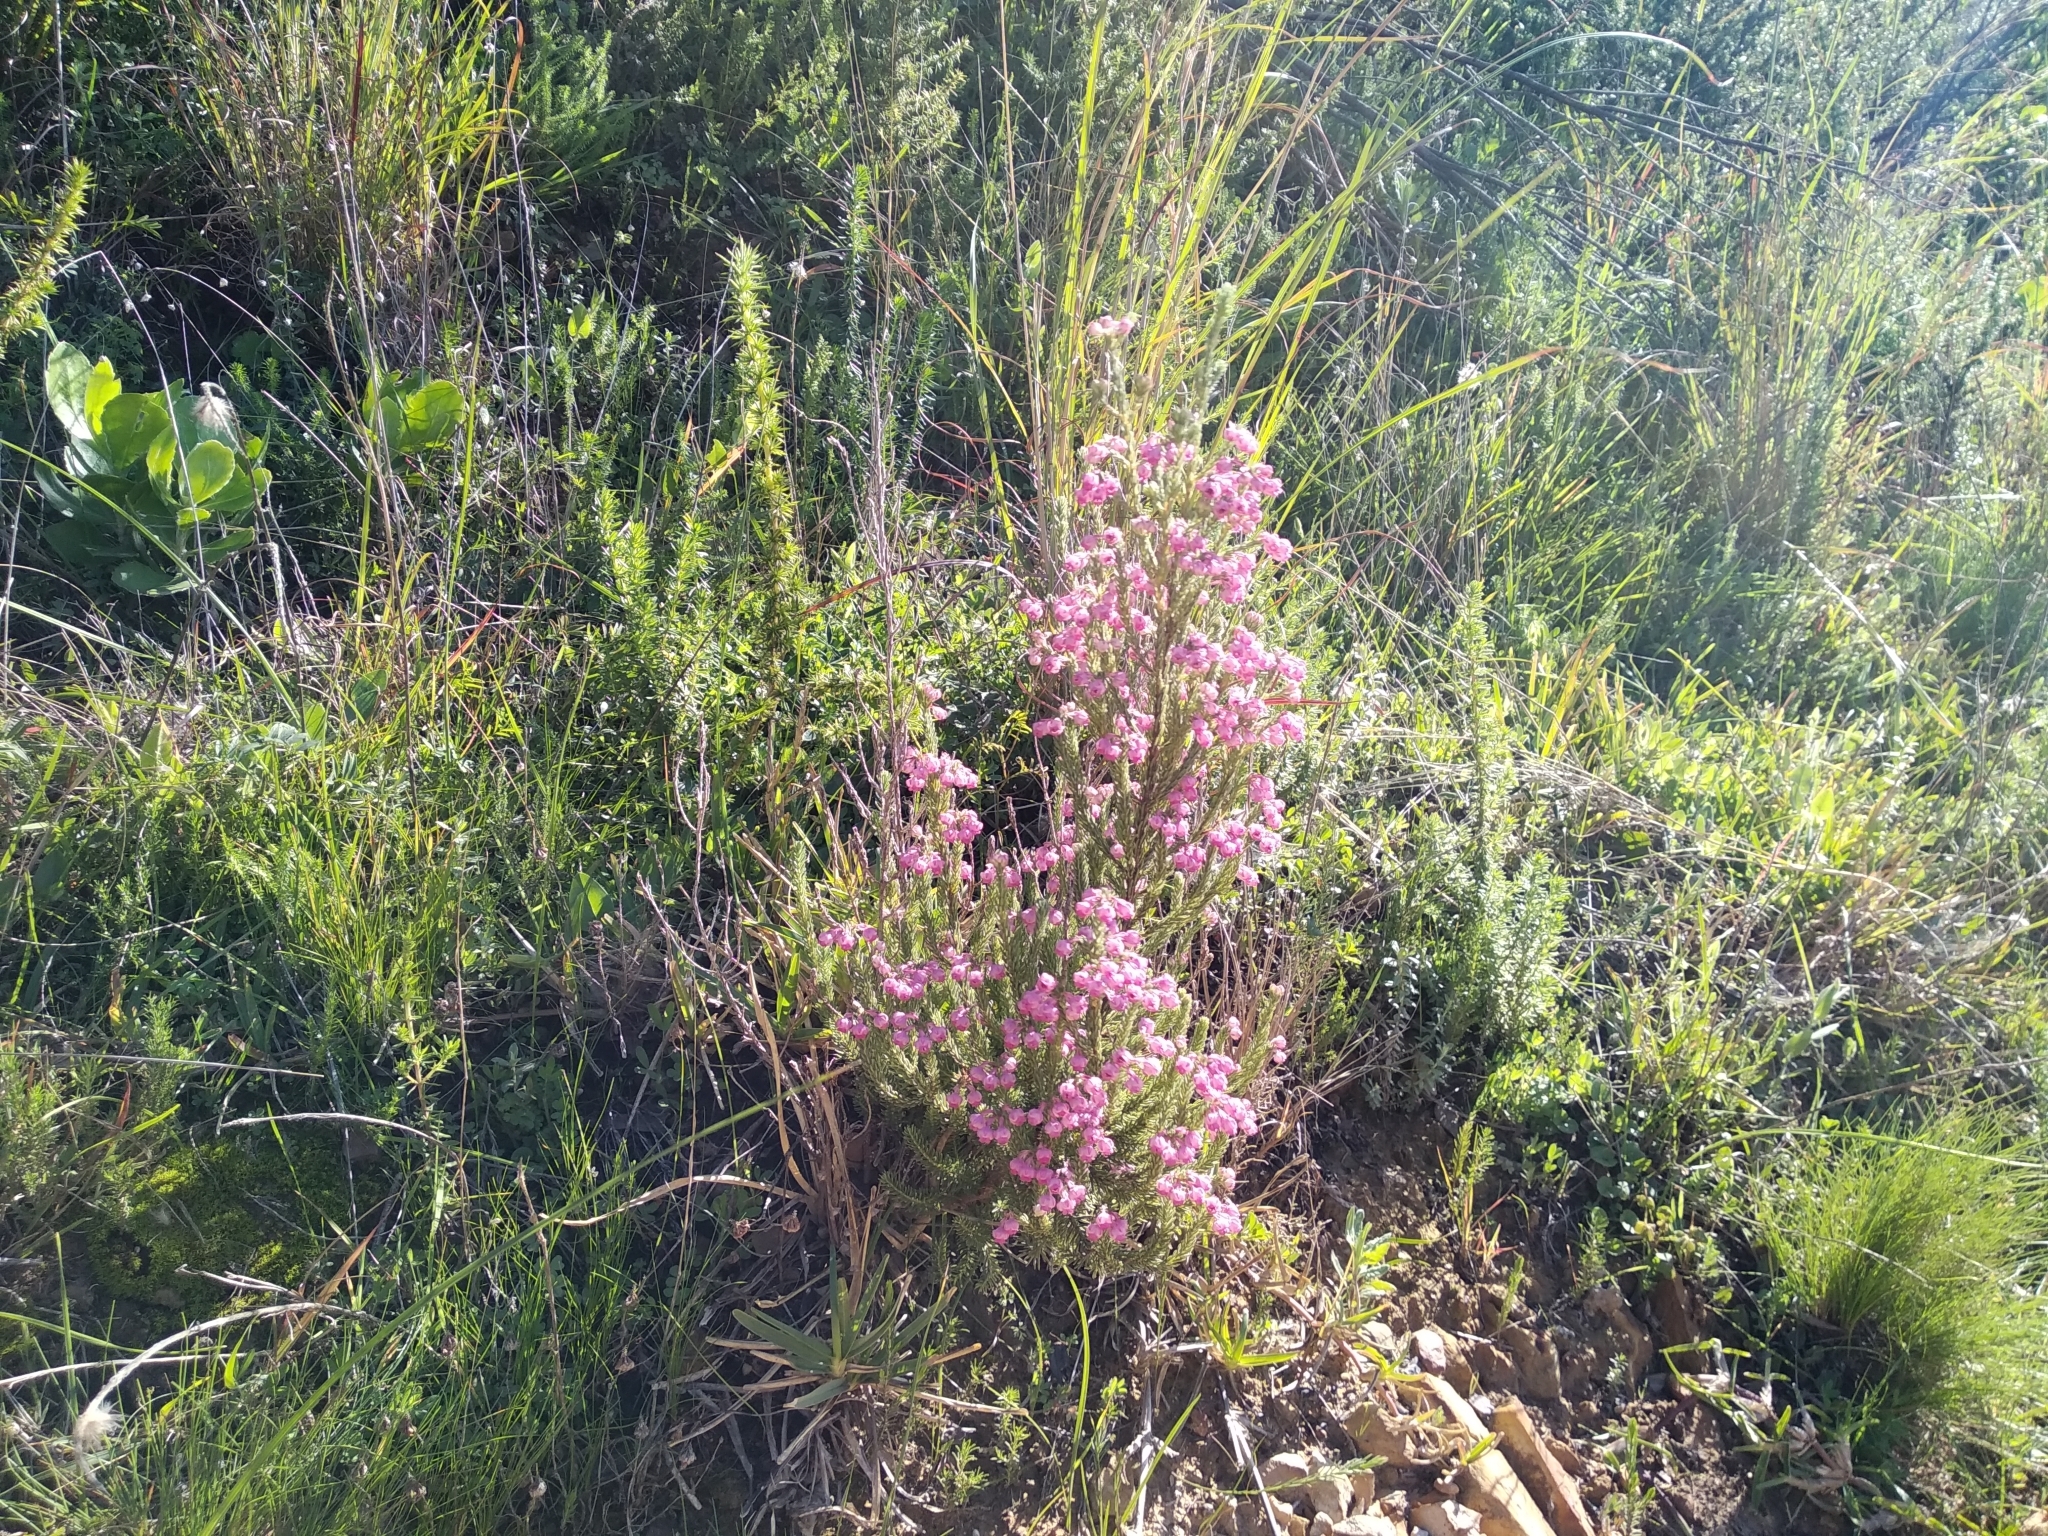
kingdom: Plantae
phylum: Tracheophyta
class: Magnoliopsida
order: Ericales
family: Ericaceae
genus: Erica
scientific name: Erica baccans
